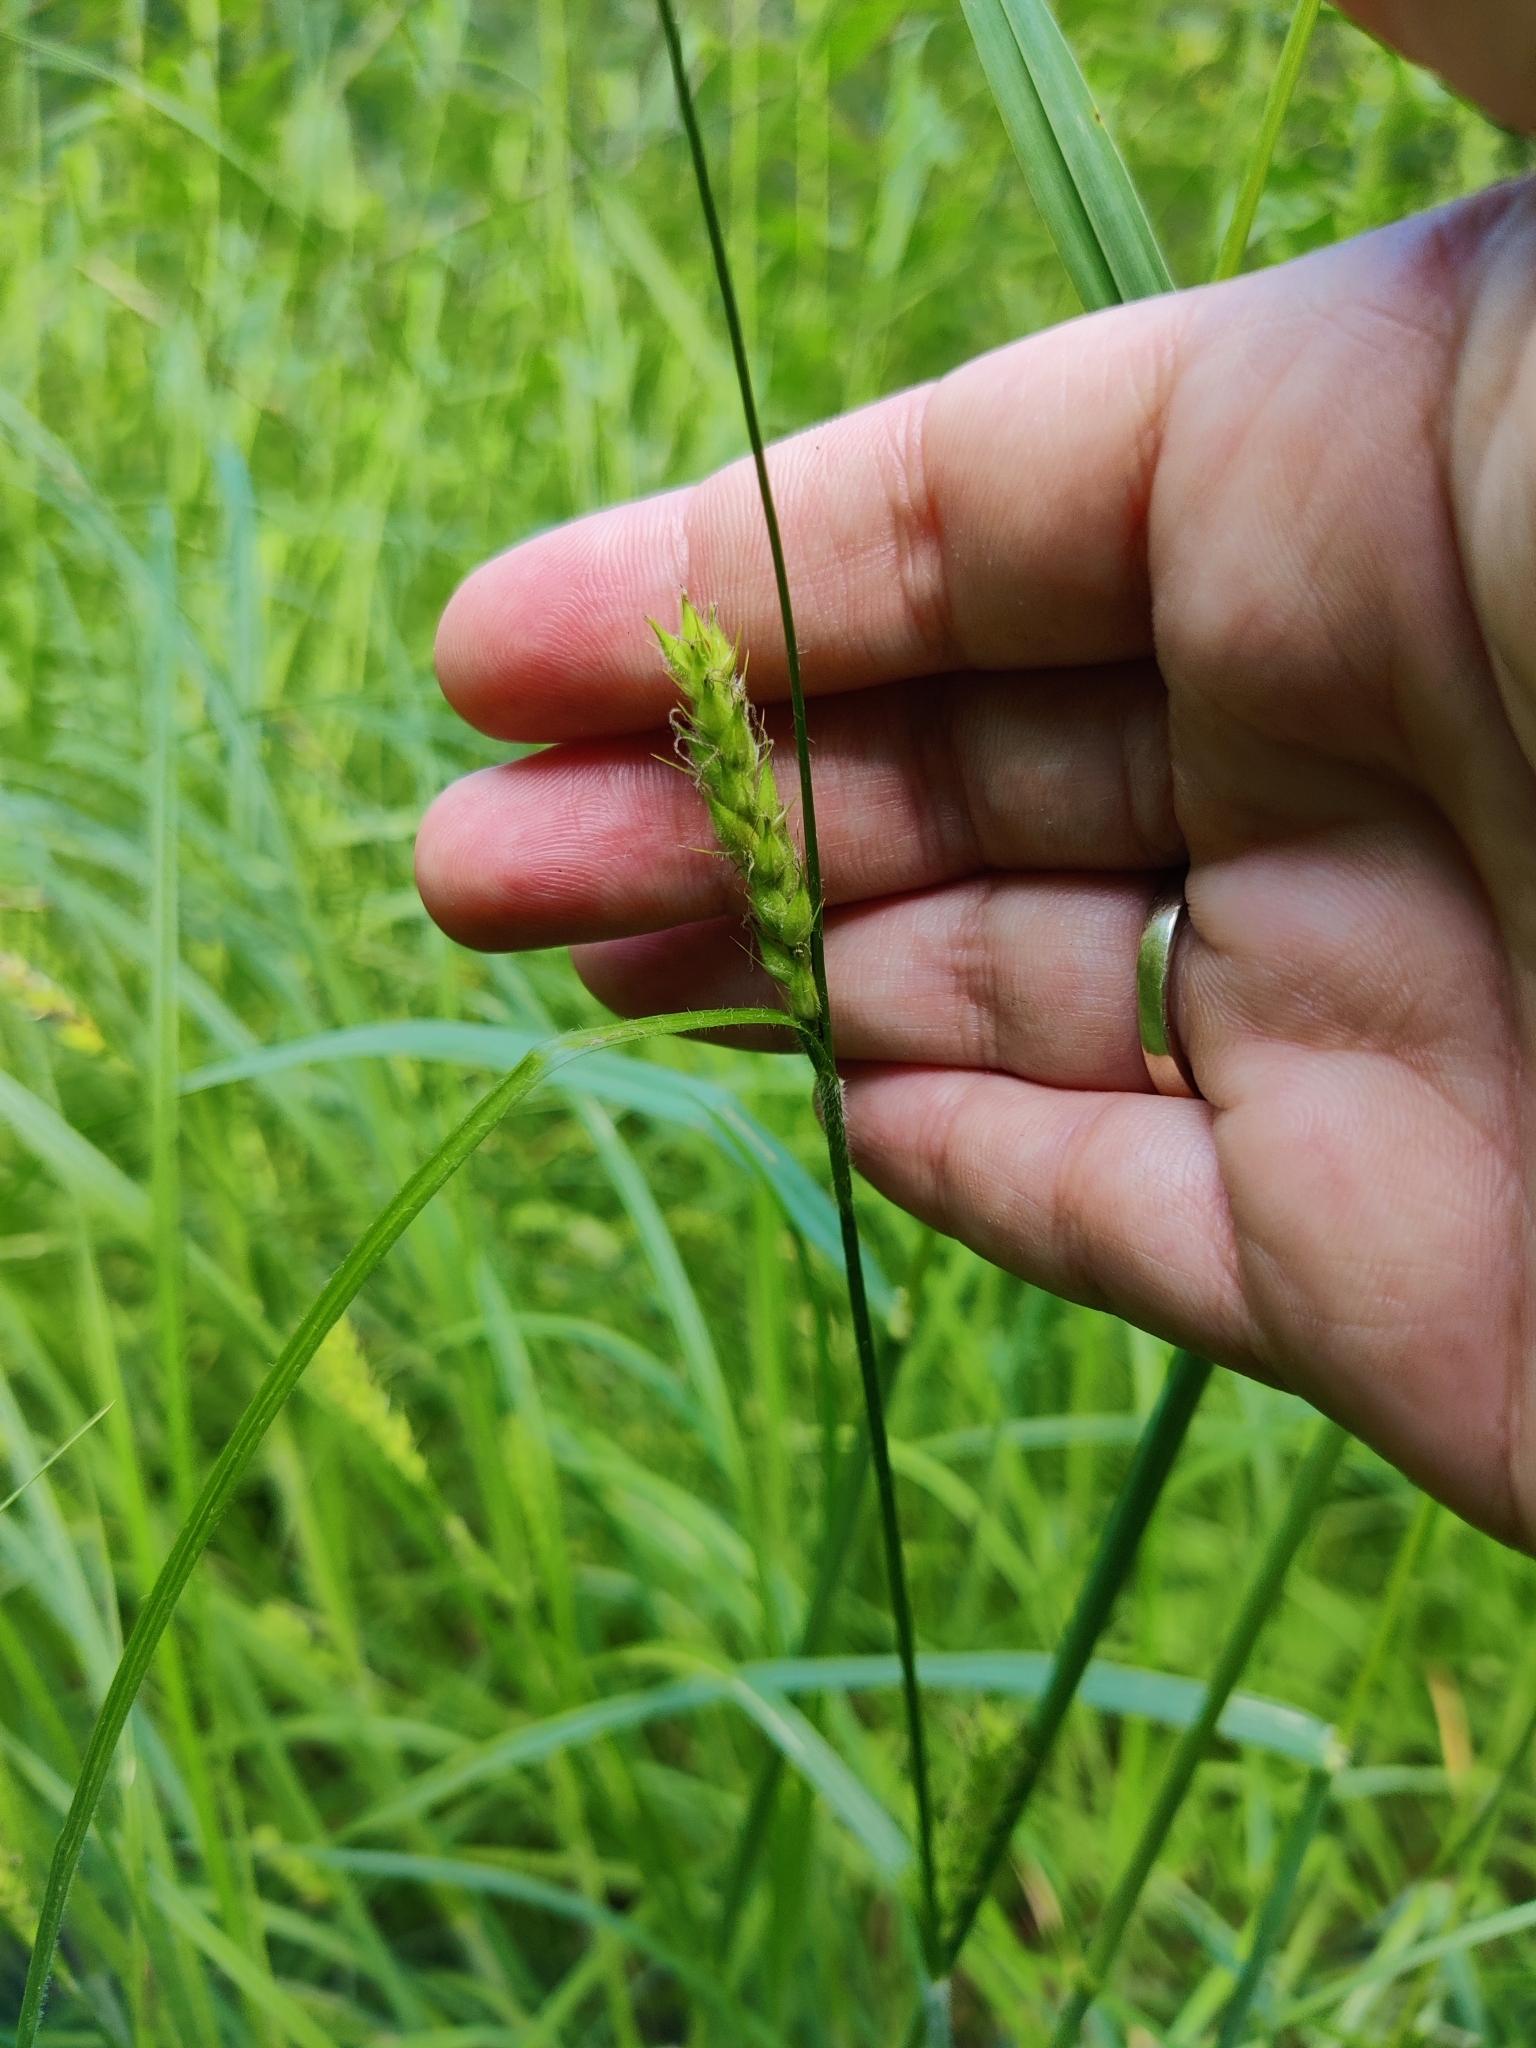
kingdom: Plantae
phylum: Tracheophyta
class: Liliopsida
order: Poales
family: Cyperaceae
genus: Carex
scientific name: Carex hirta
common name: Hairy sedge
